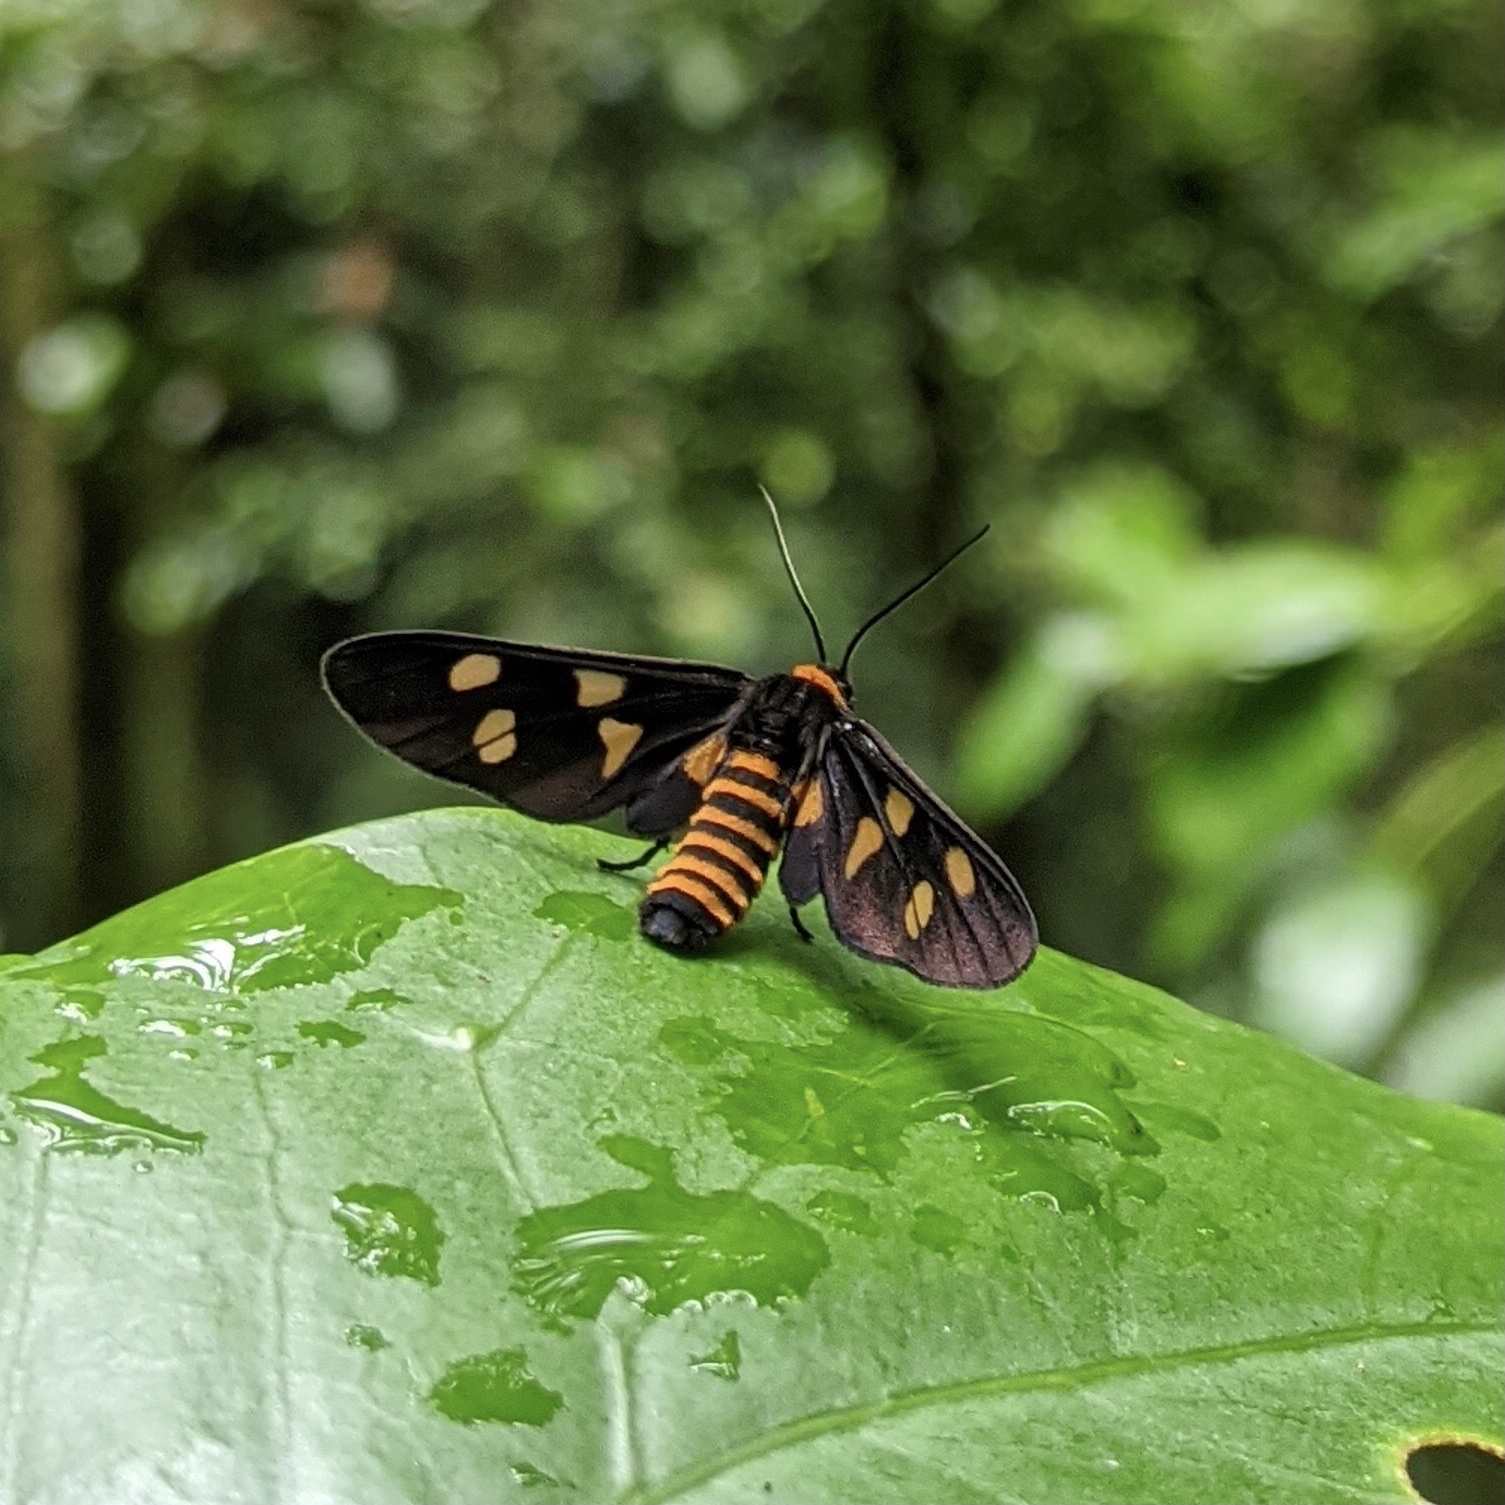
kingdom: Animalia
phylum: Arthropoda
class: Insecta
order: Lepidoptera
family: Erebidae
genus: Eressa
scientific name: Eressa angustipenna
